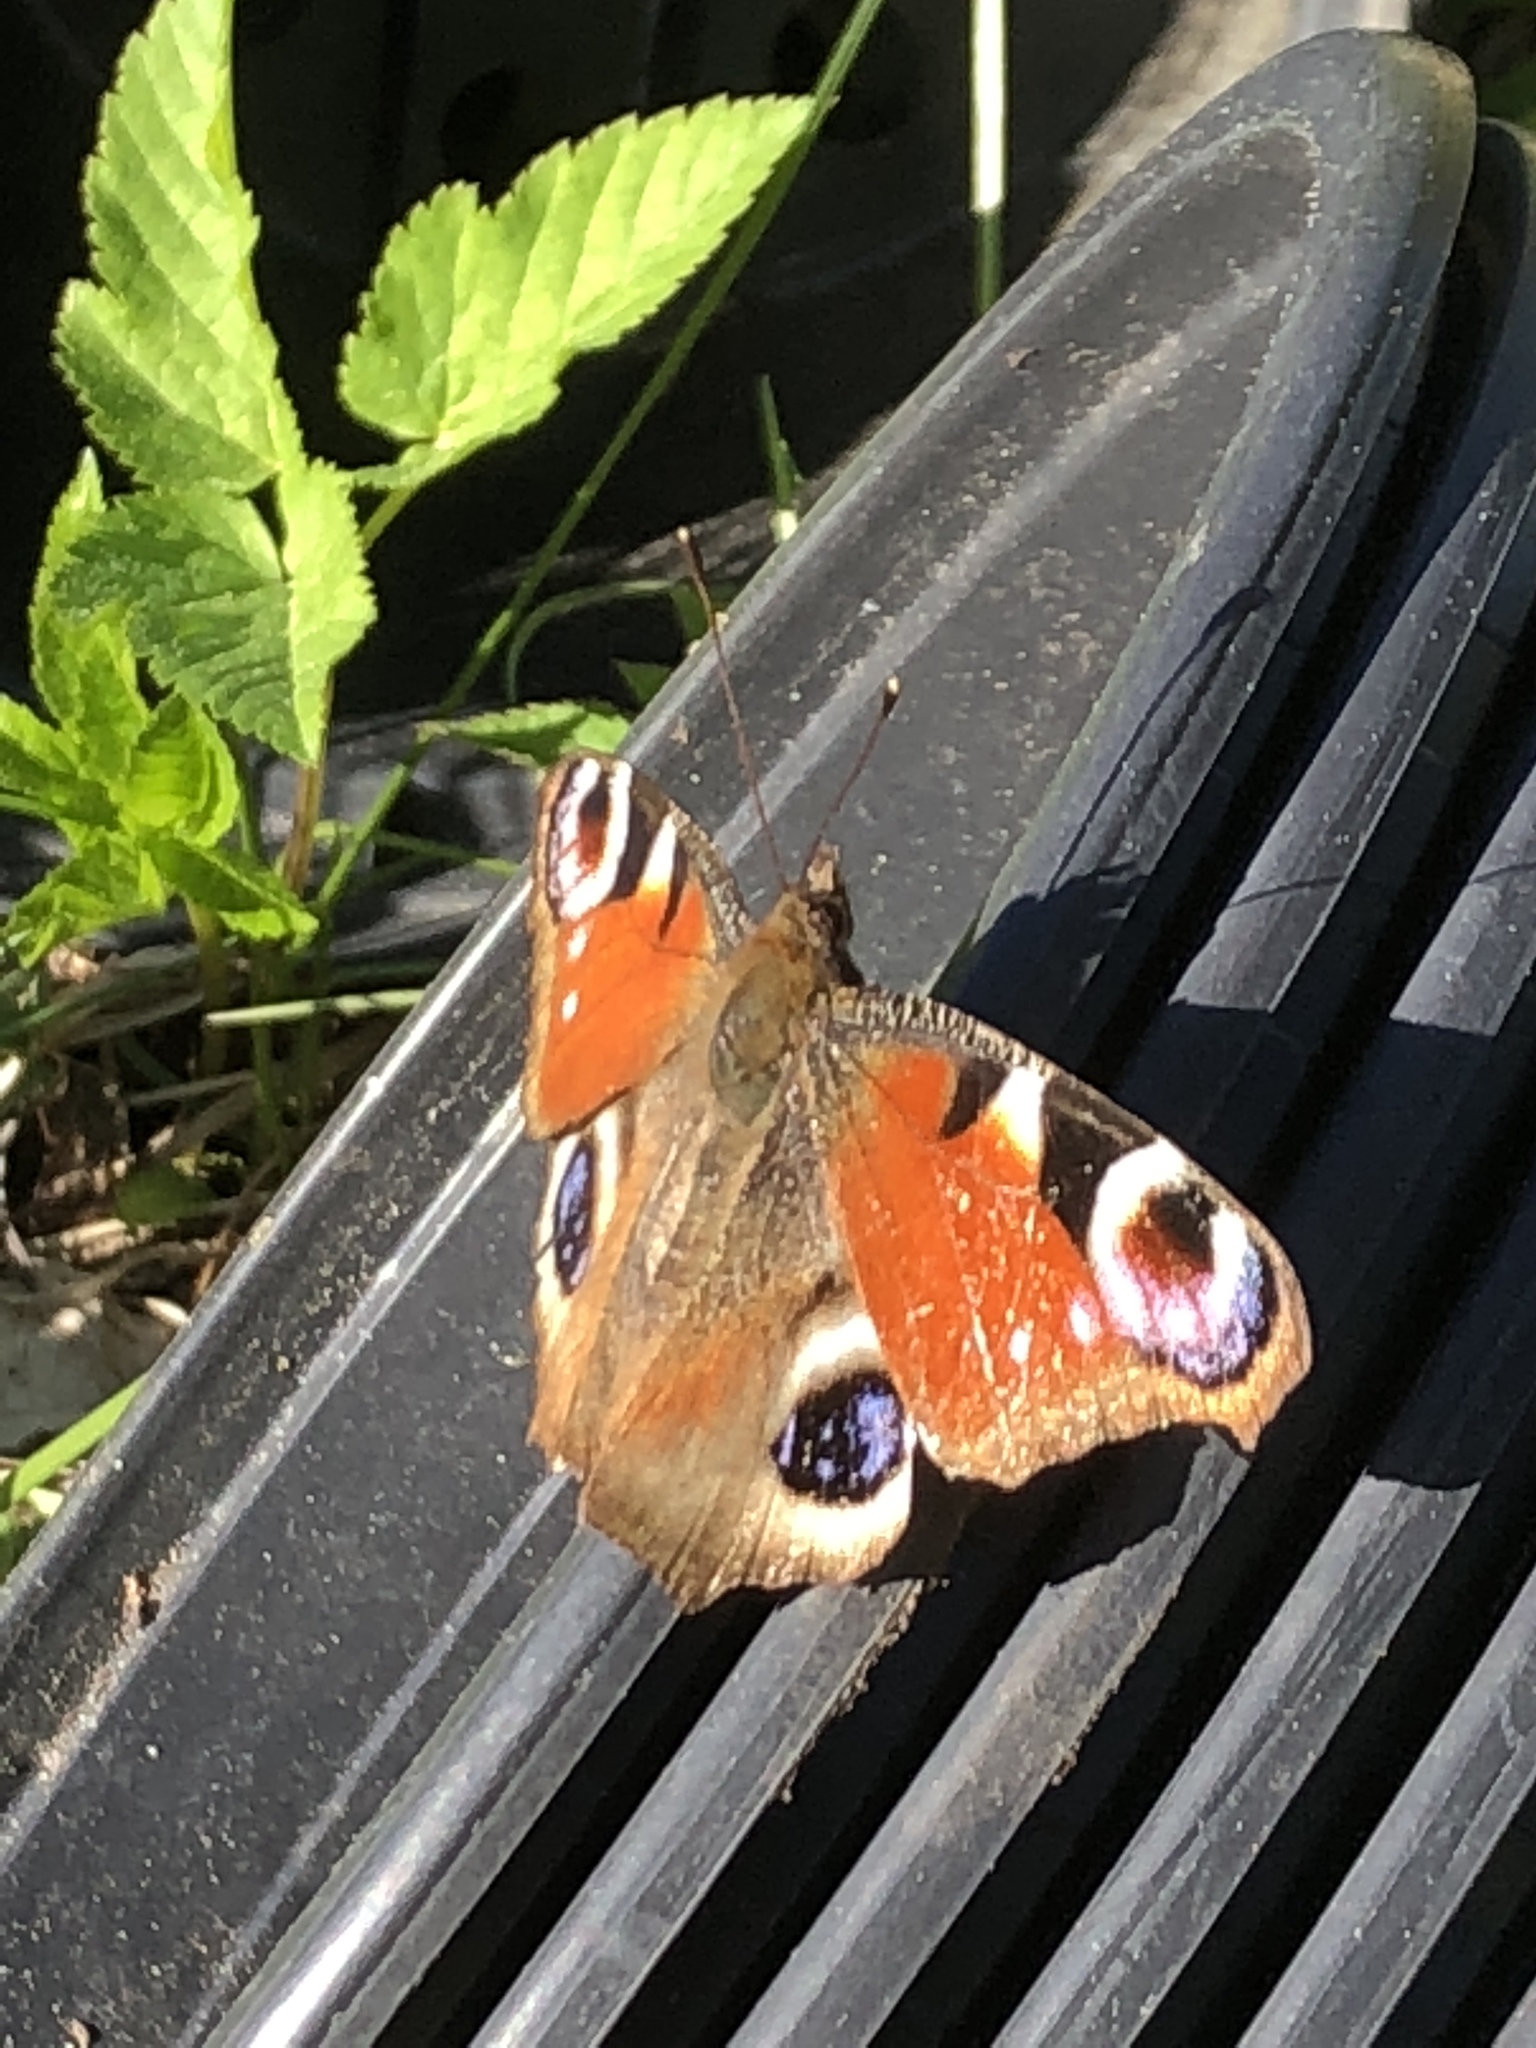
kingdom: Animalia
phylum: Arthropoda
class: Insecta
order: Lepidoptera
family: Nymphalidae
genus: Aglais
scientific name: Aglais io
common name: Peacock
